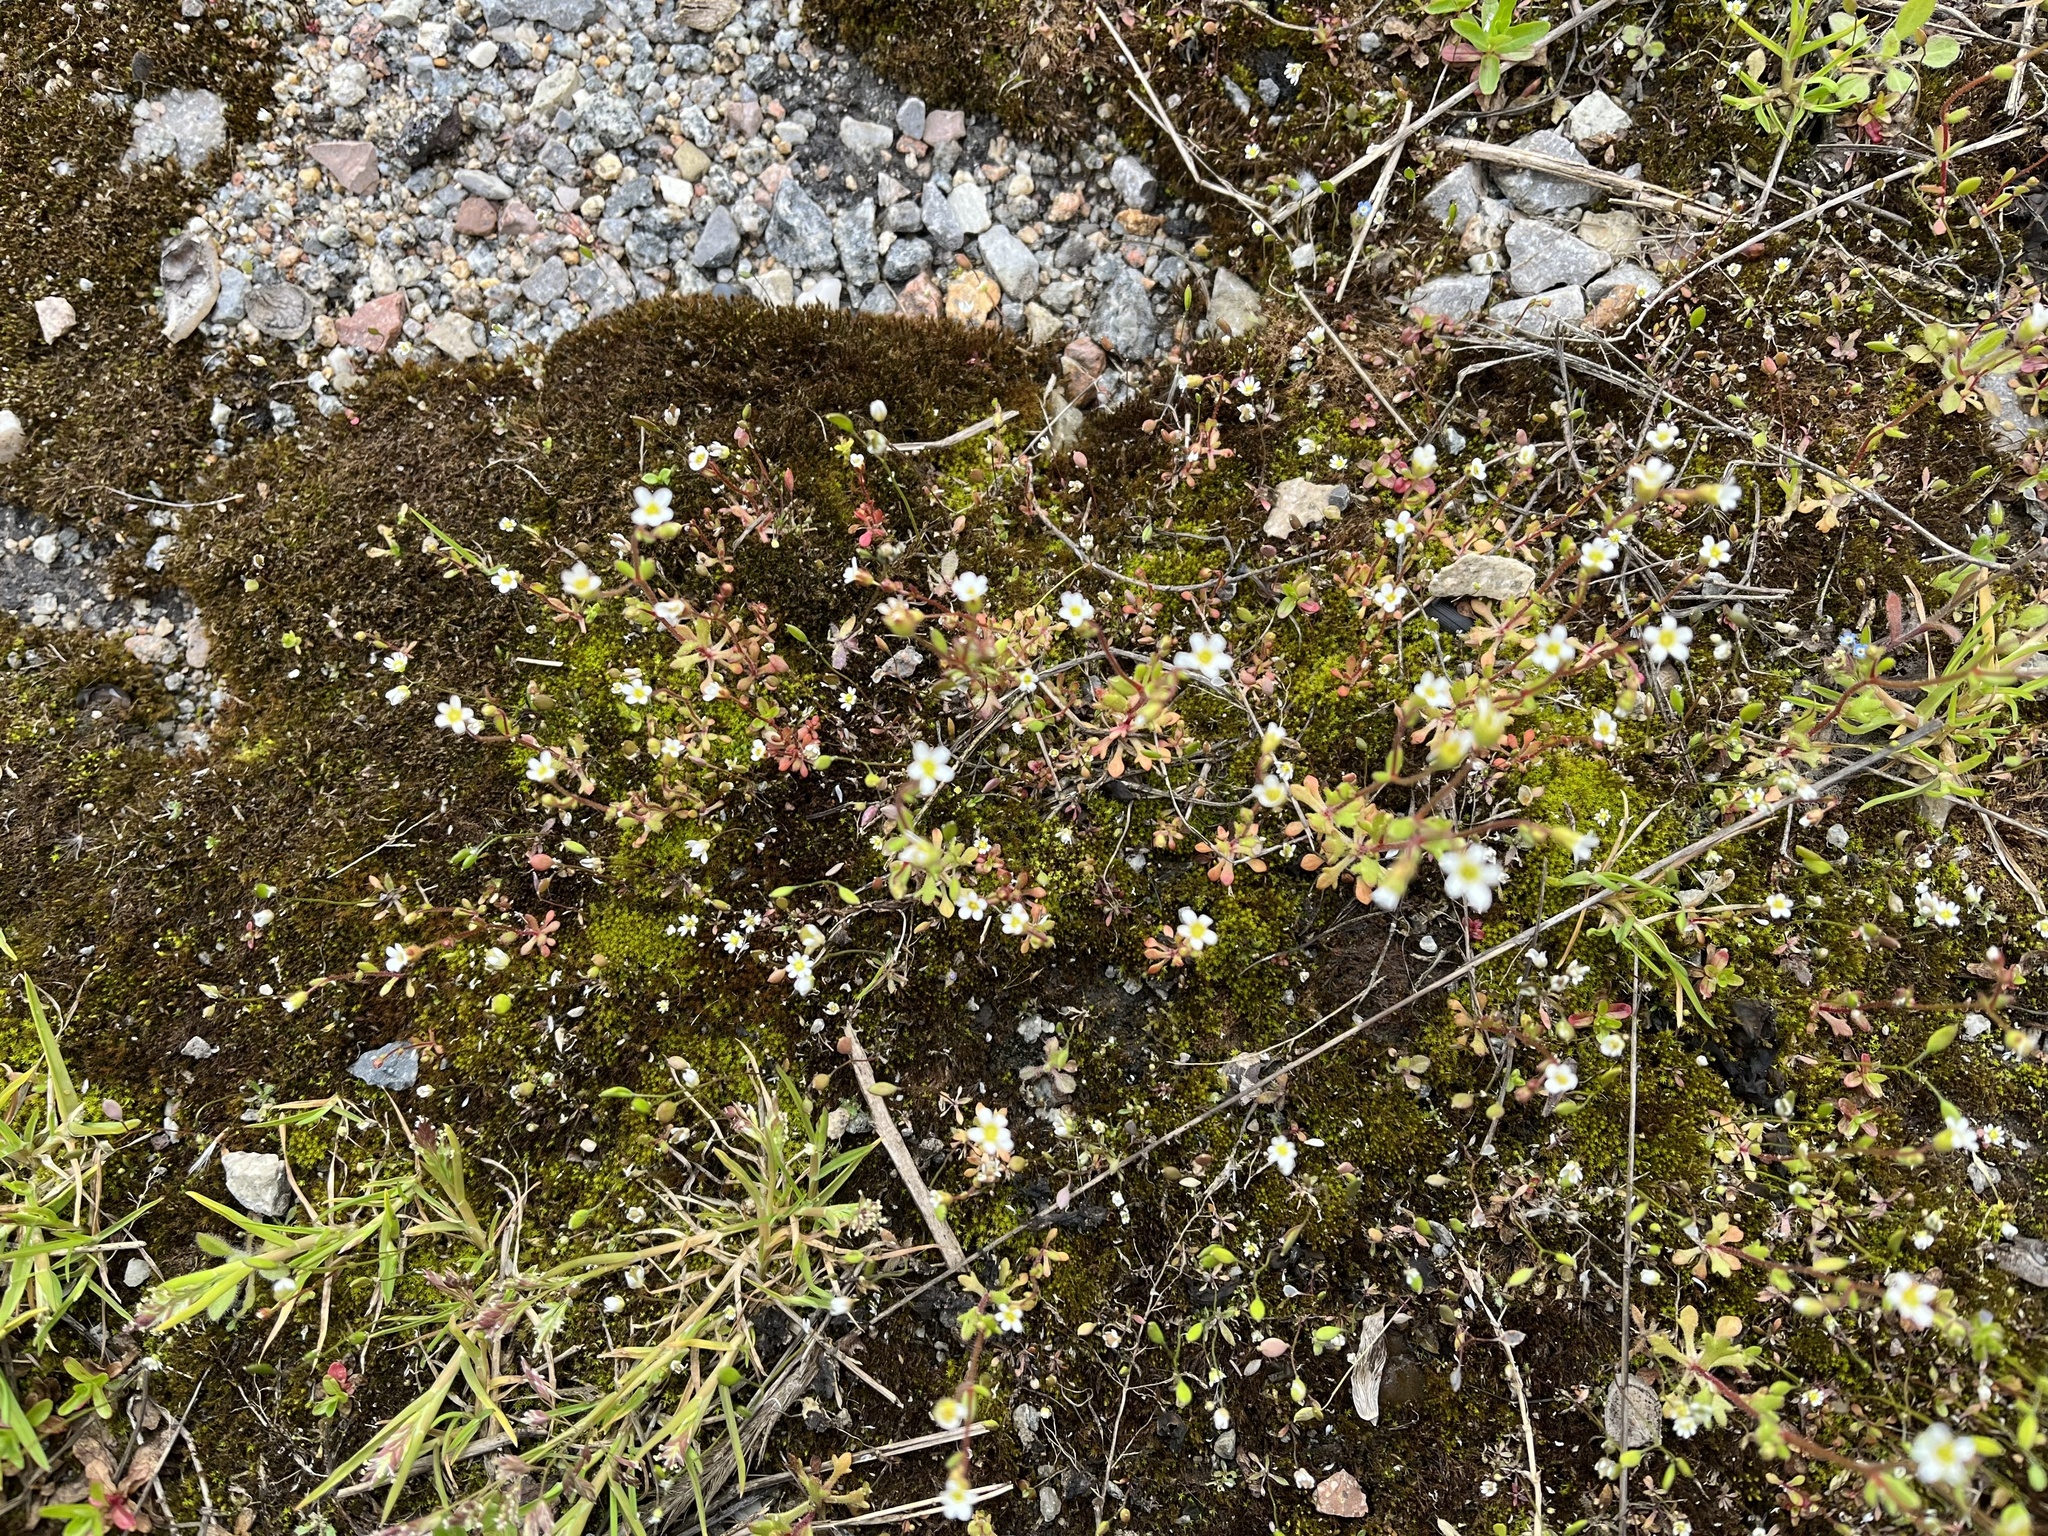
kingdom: Plantae
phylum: Tracheophyta
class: Magnoliopsida
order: Saxifragales
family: Saxifragaceae
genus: Saxifraga
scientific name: Saxifraga tridactylites
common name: Rue-leaved saxifrage
